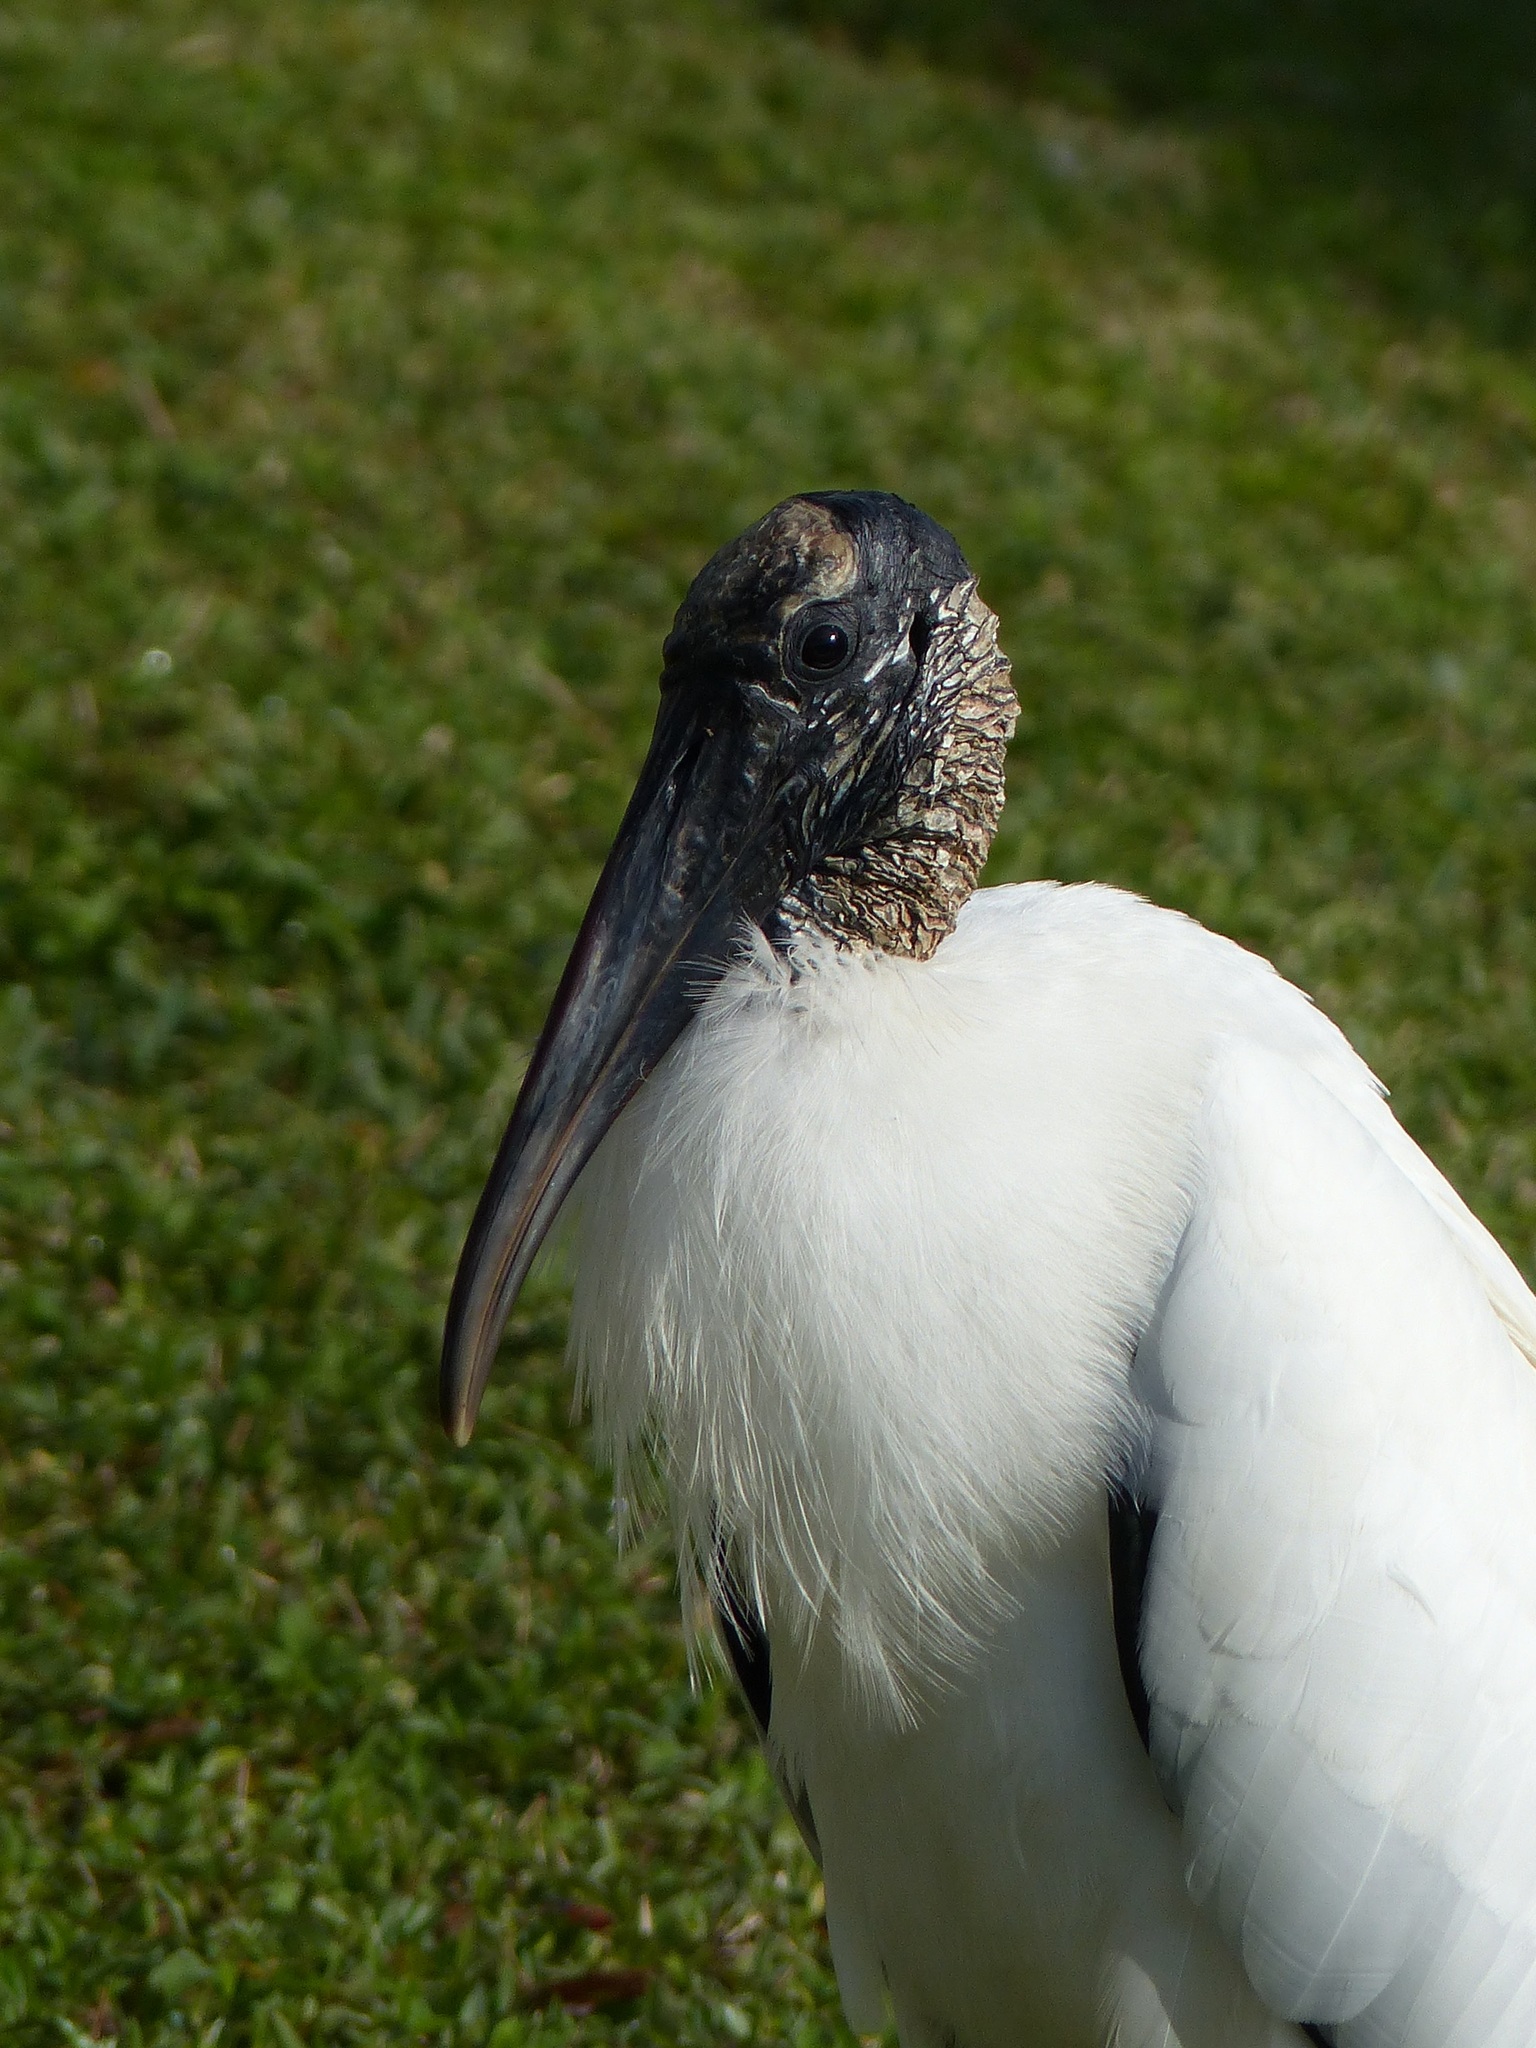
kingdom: Animalia
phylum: Chordata
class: Aves
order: Ciconiiformes
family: Ciconiidae
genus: Mycteria
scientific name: Mycteria americana
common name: Wood stork
